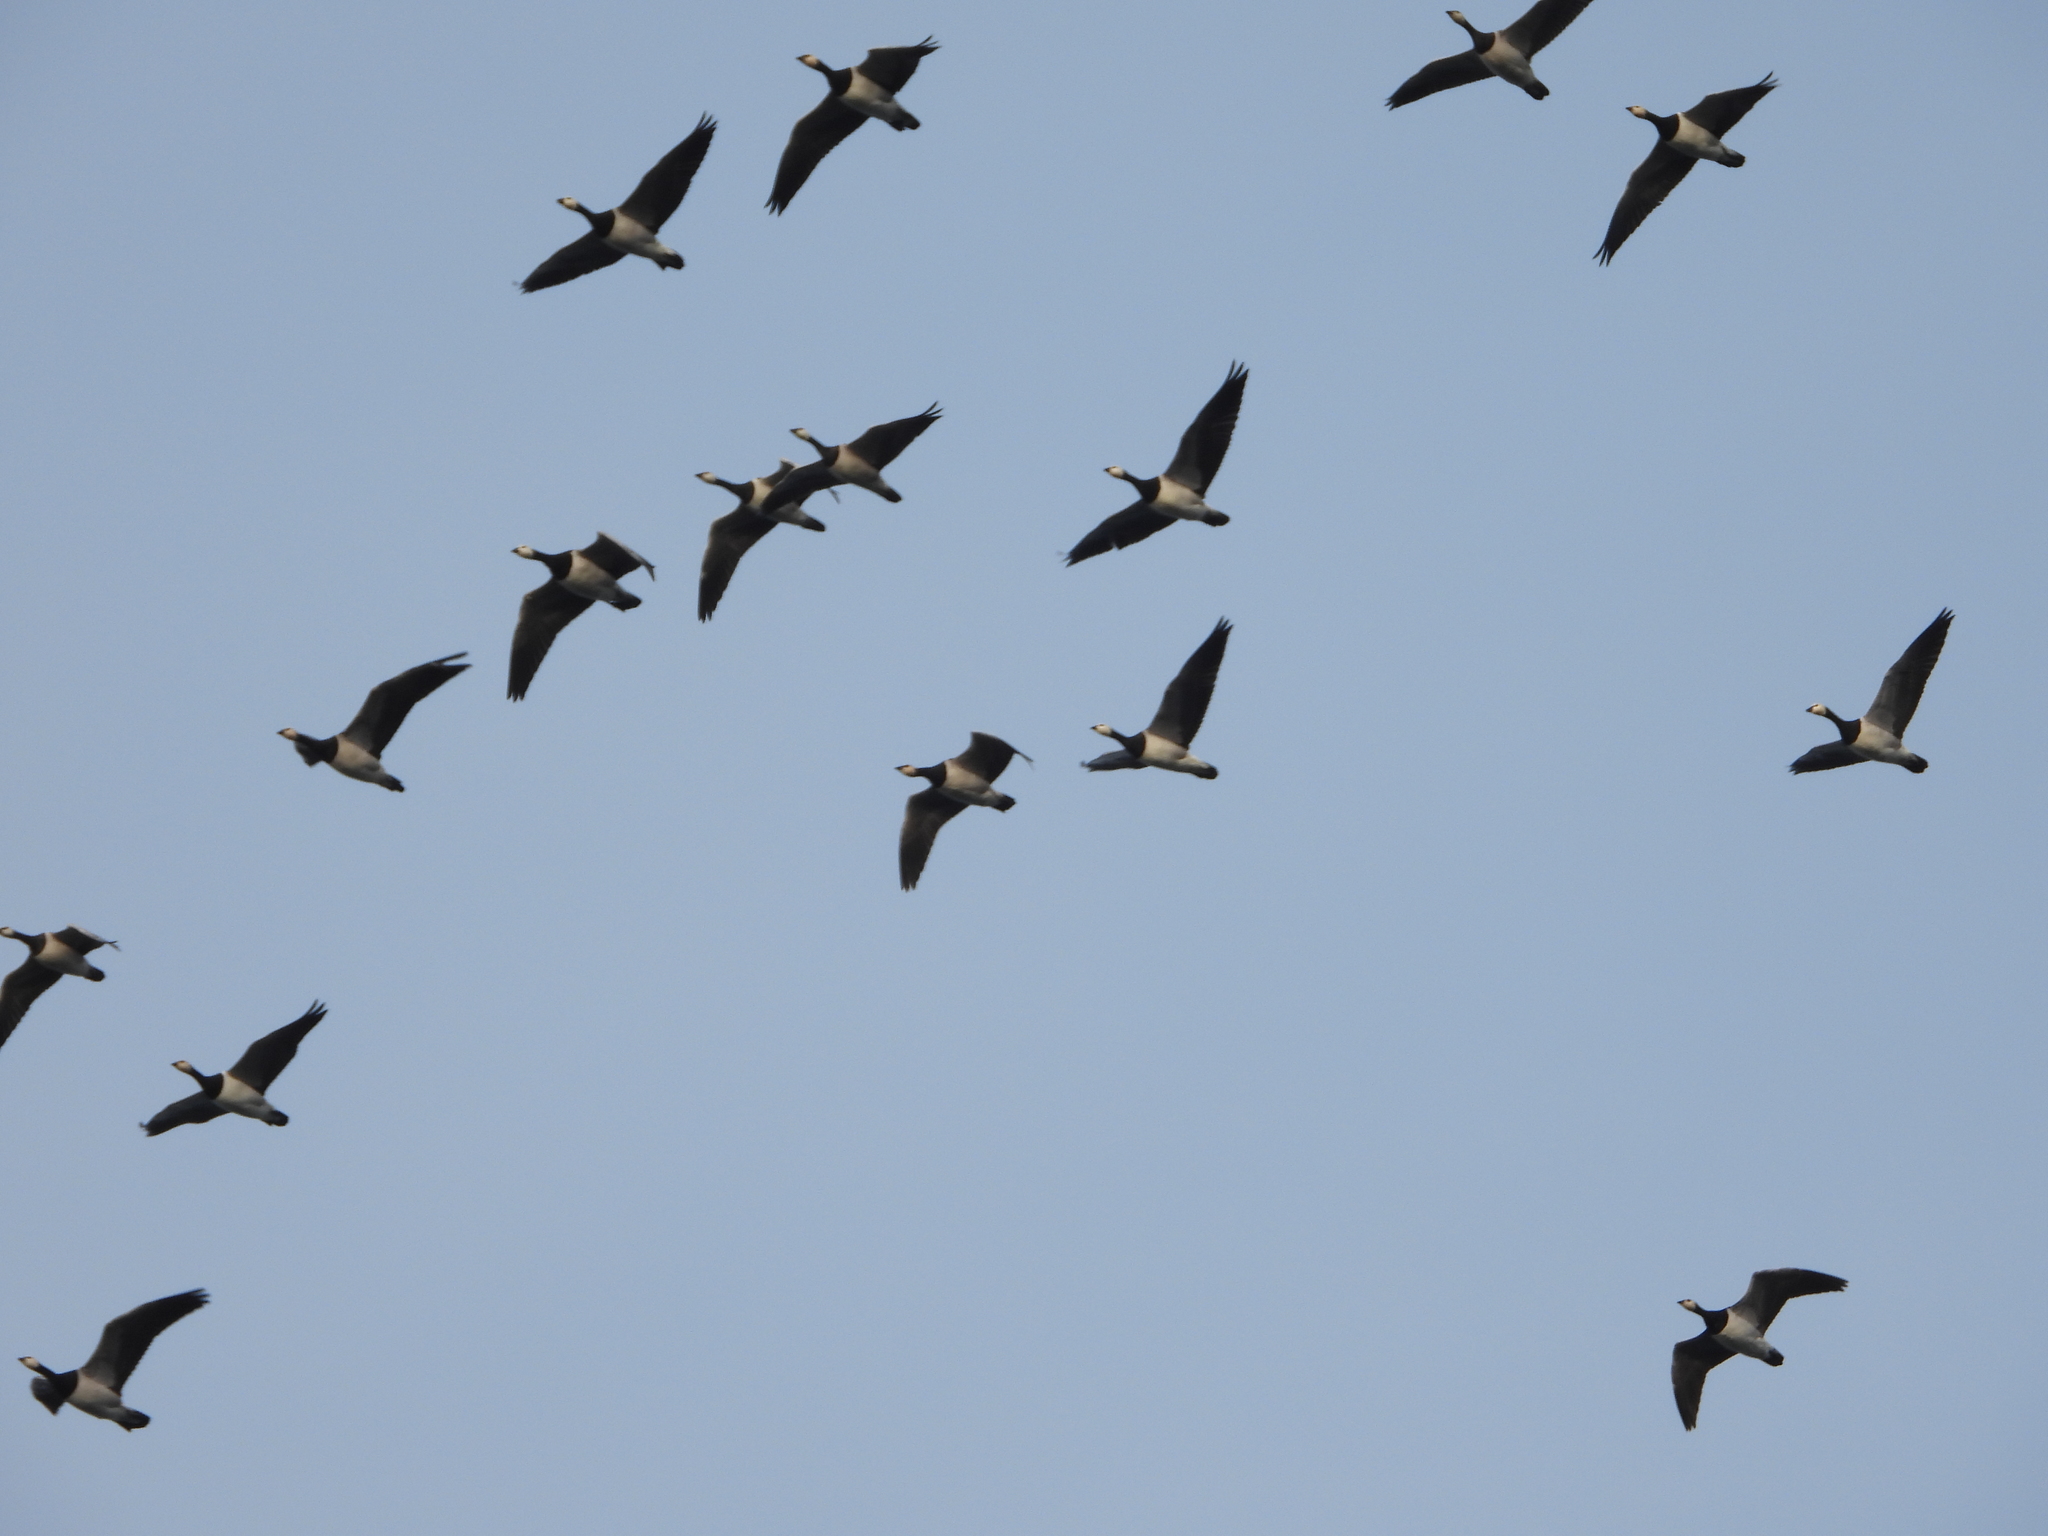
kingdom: Animalia
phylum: Chordata
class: Aves
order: Anseriformes
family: Anatidae
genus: Branta
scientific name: Branta leucopsis
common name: Barnacle goose
